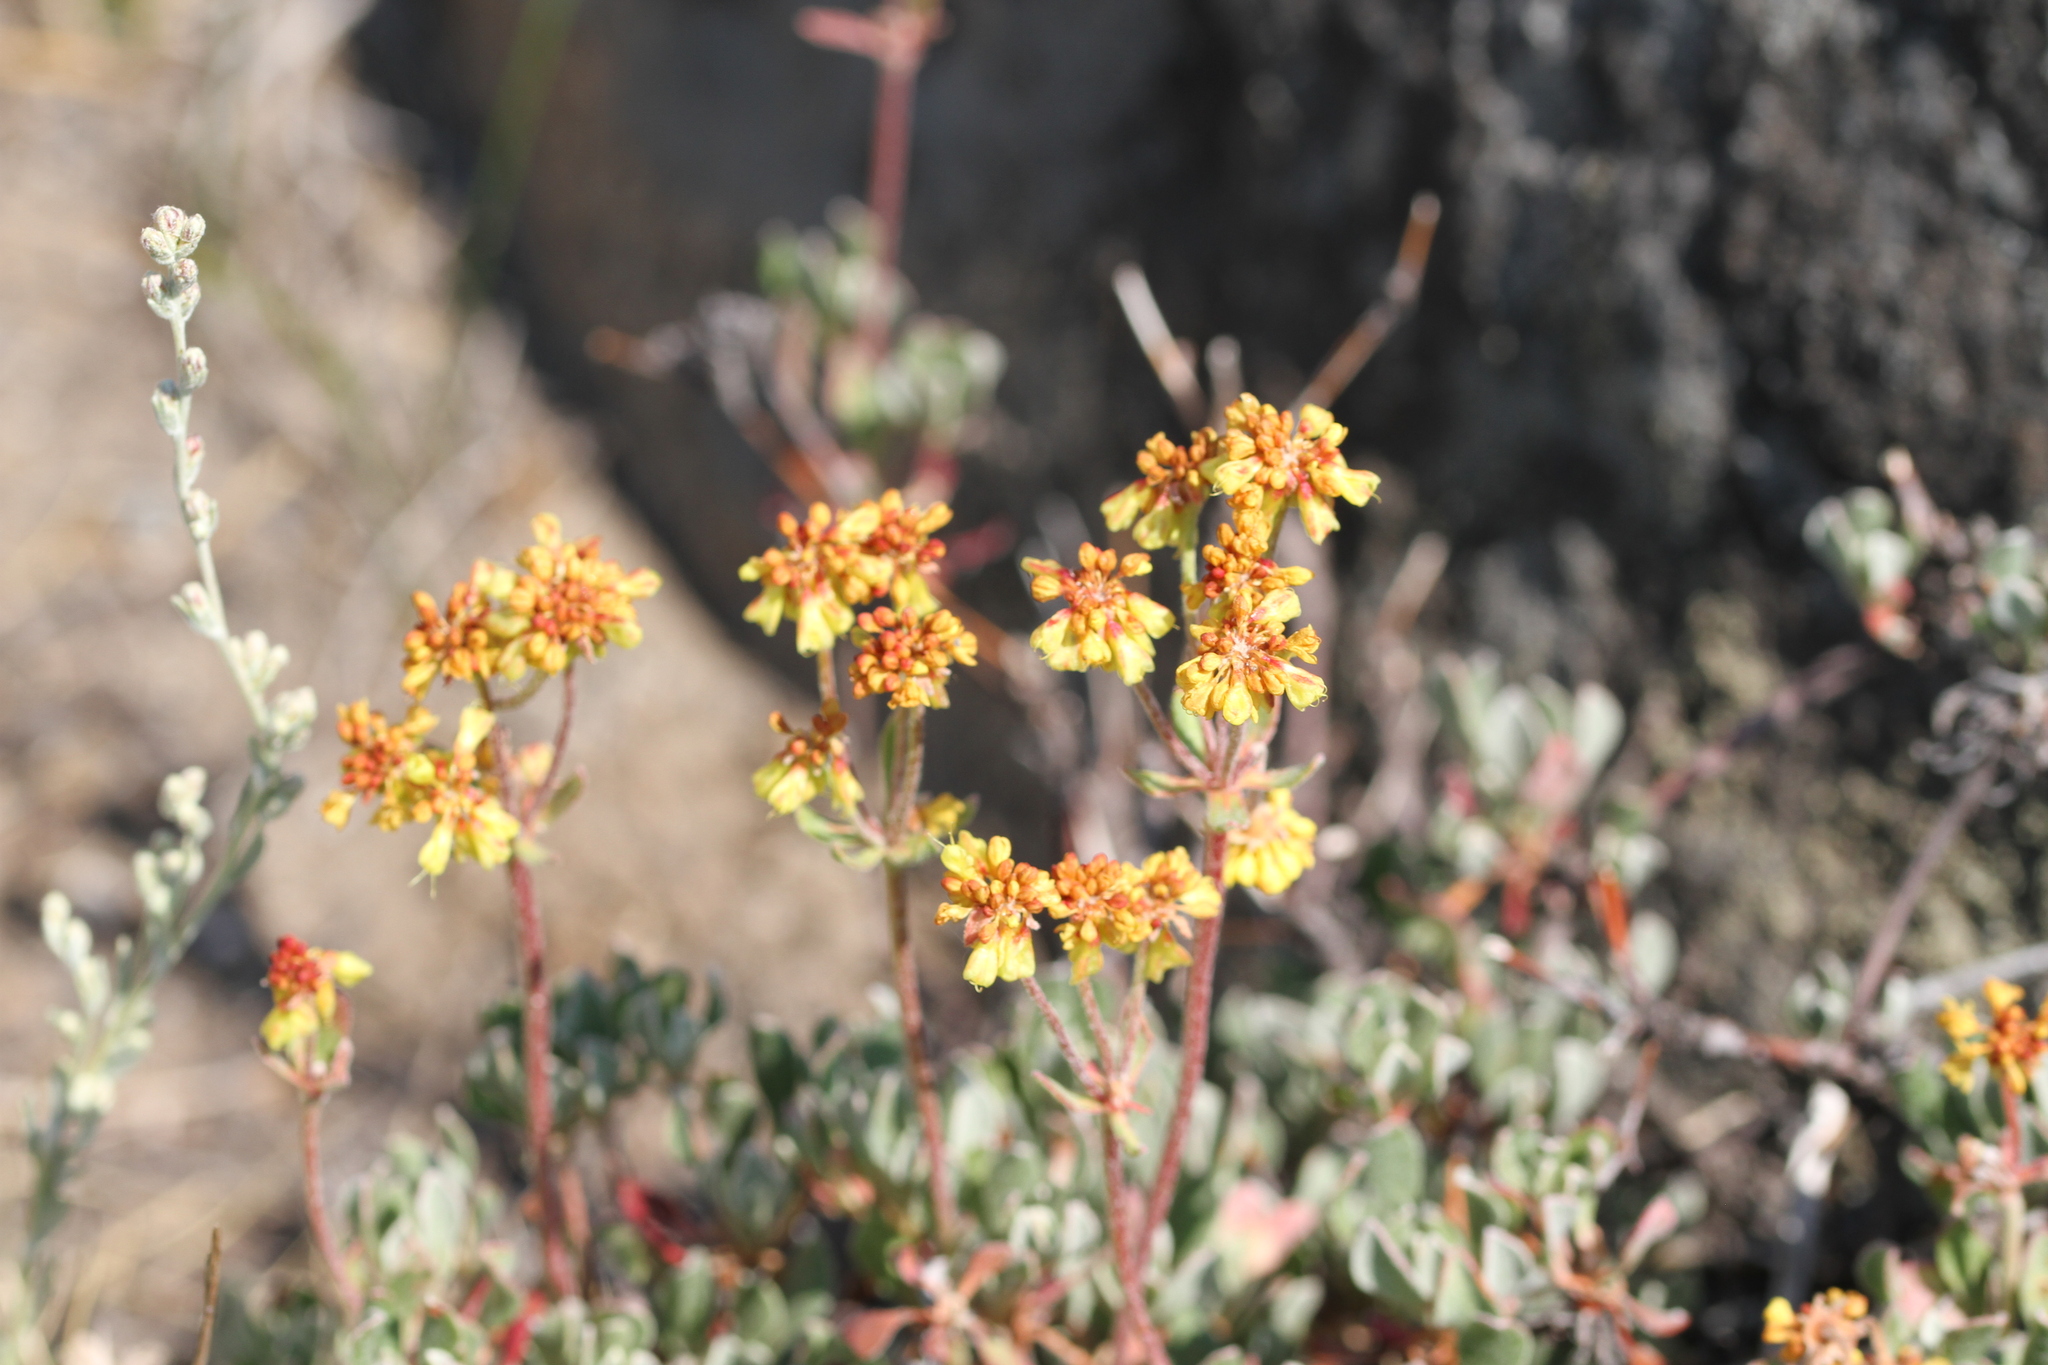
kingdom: Plantae
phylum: Tracheophyta
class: Magnoliopsida
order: Caryophyllales
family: Polygonaceae
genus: Eriogonum
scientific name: Eriogonum umbellatum
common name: Sulfur-buckwheat
